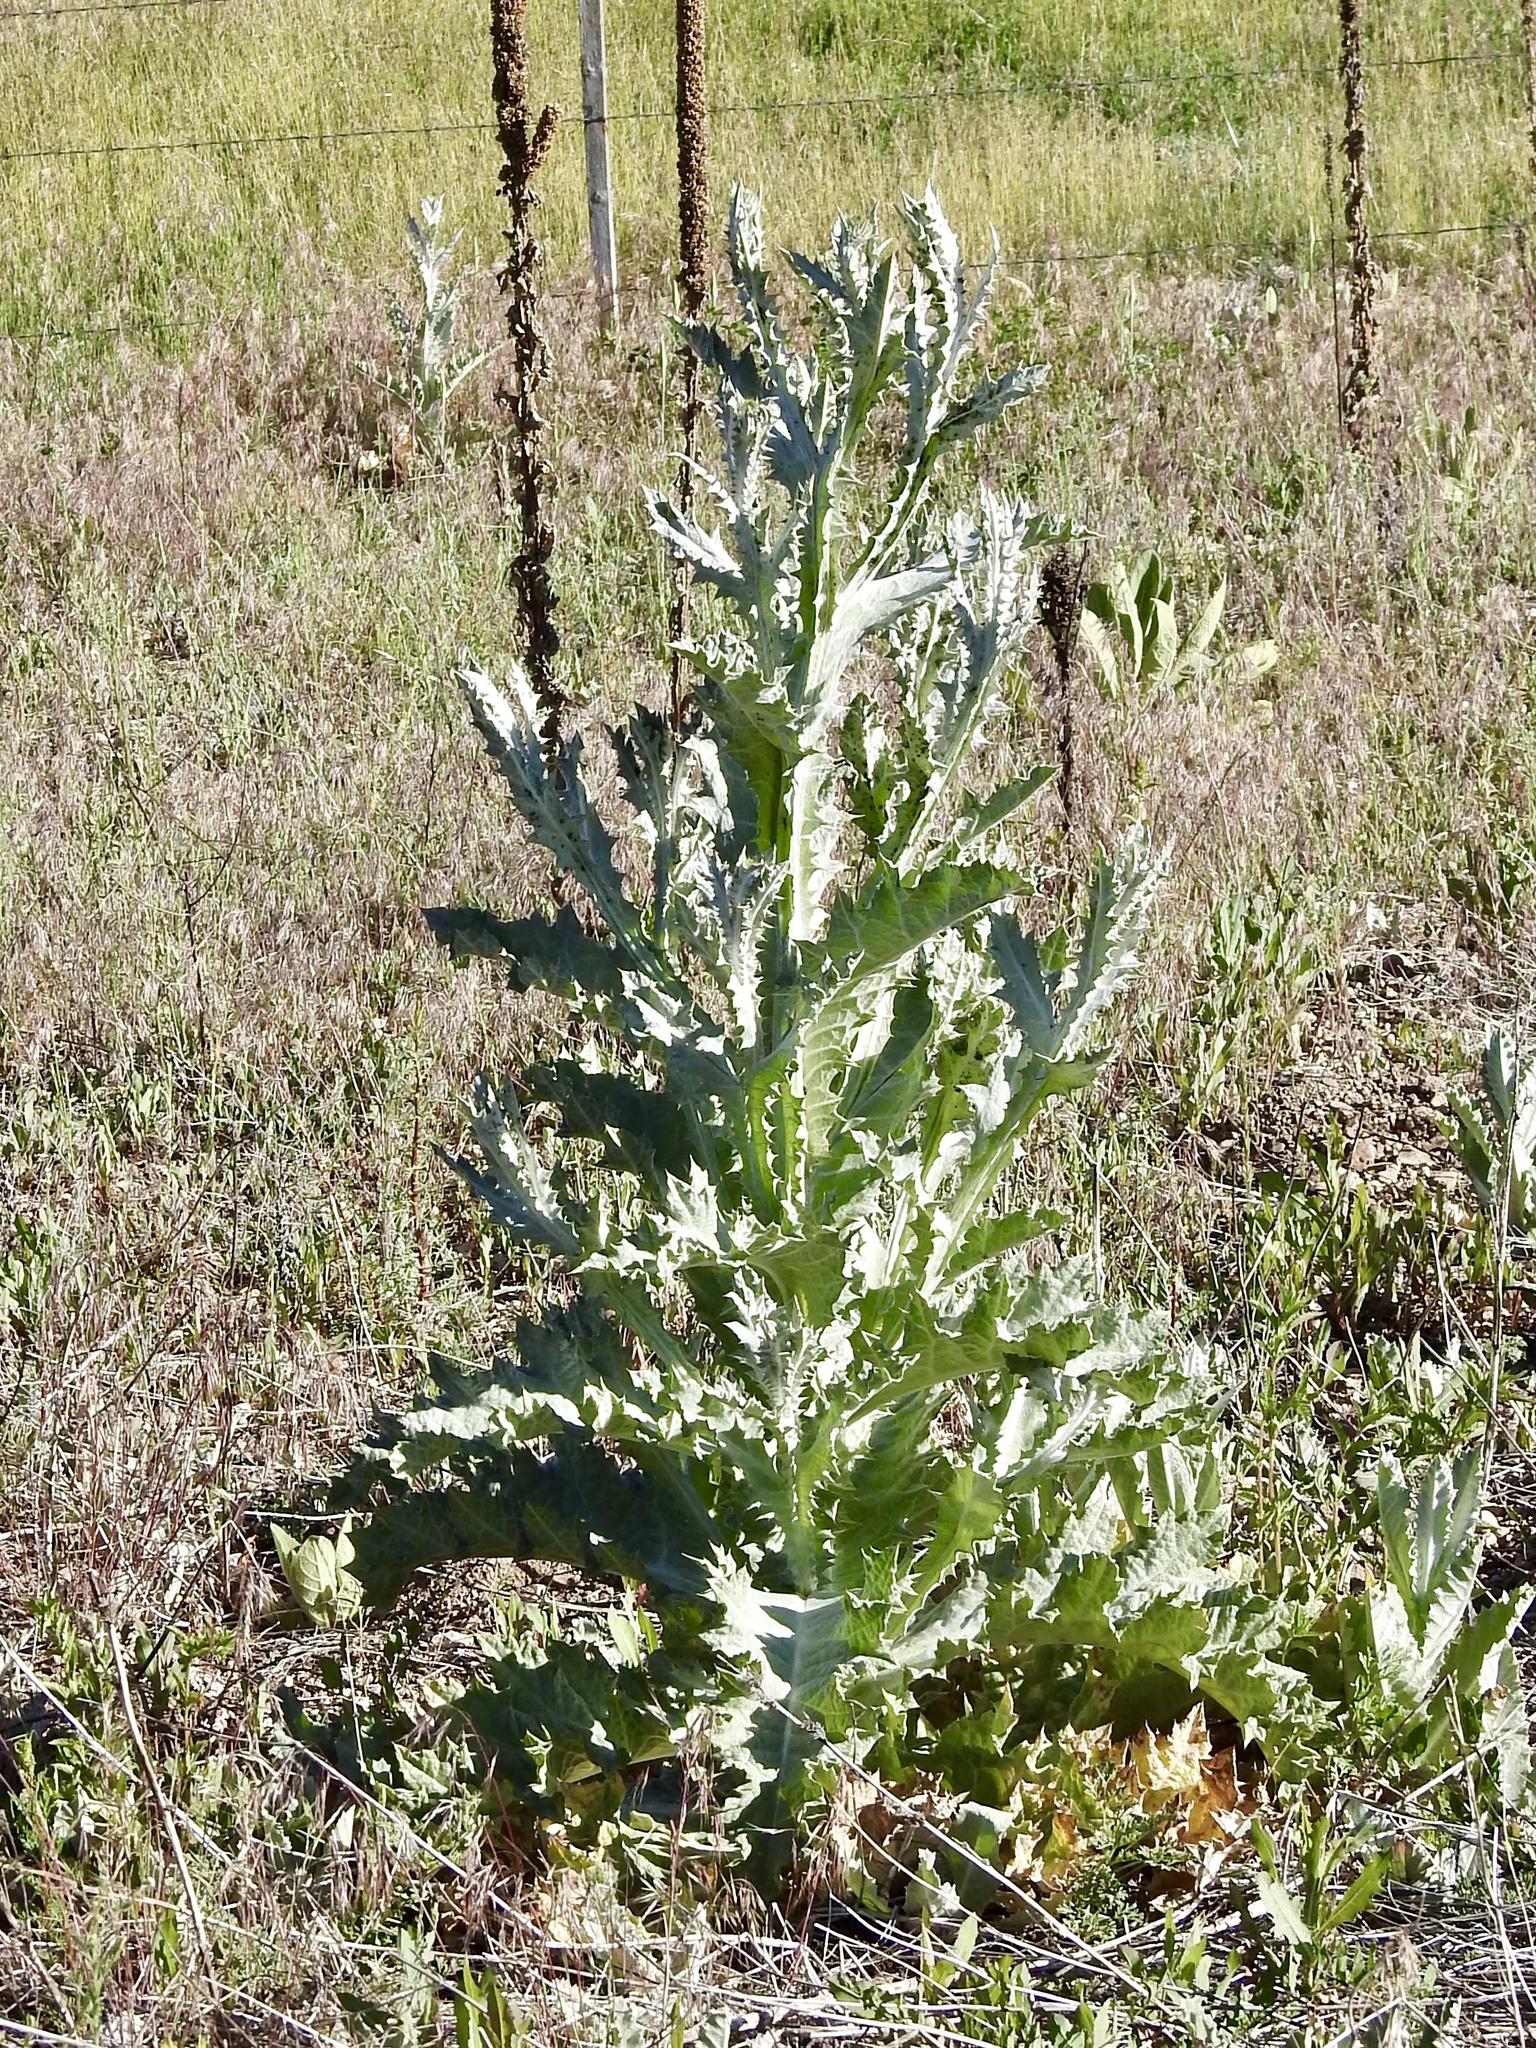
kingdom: Plantae
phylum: Tracheophyta
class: Magnoliopsida
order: Asterales
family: Asteraceae
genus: Onopordum
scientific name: Onopordum acanthium
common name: Scotch thistle
